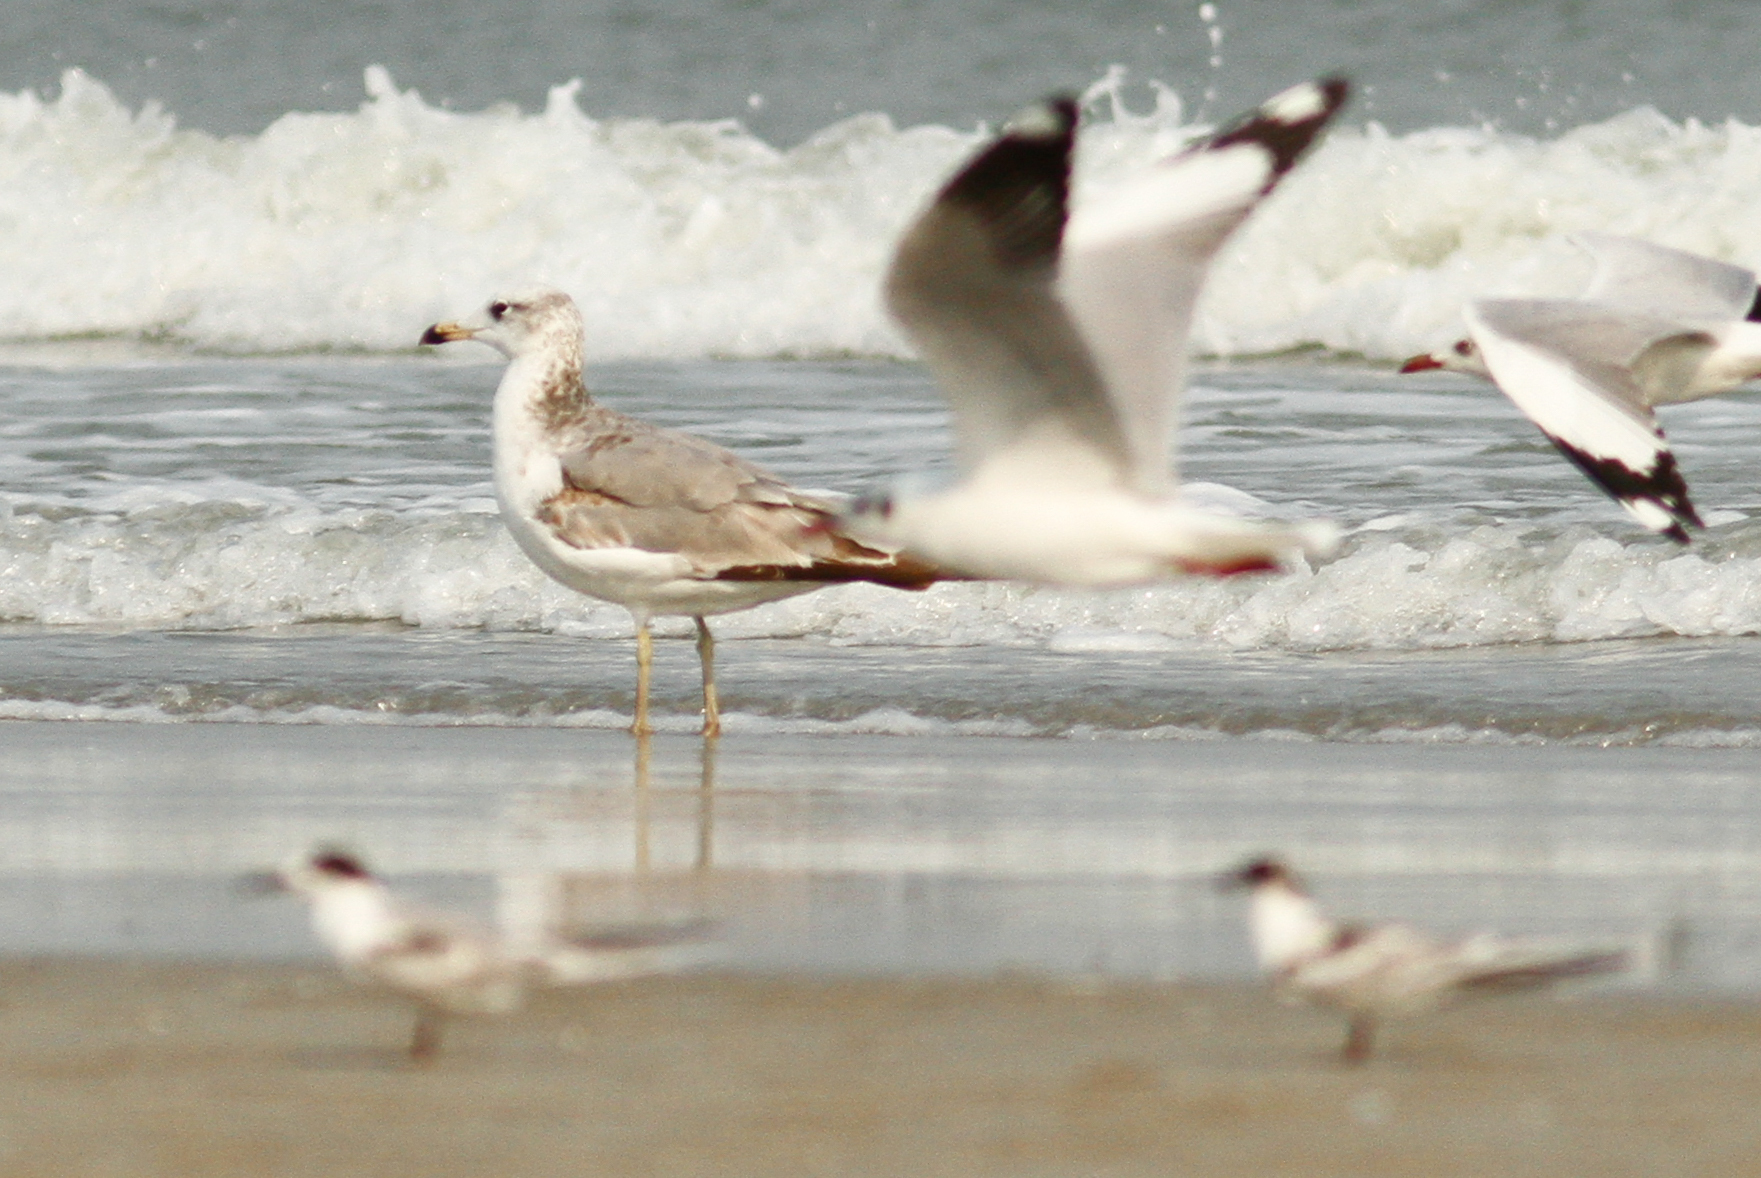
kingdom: Animalia
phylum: Chordata
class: Aves
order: Charadriiformes
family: Laridae
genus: Ichthyaetus
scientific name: Ichthyaetus ichthyaetus
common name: Pallas's gull
